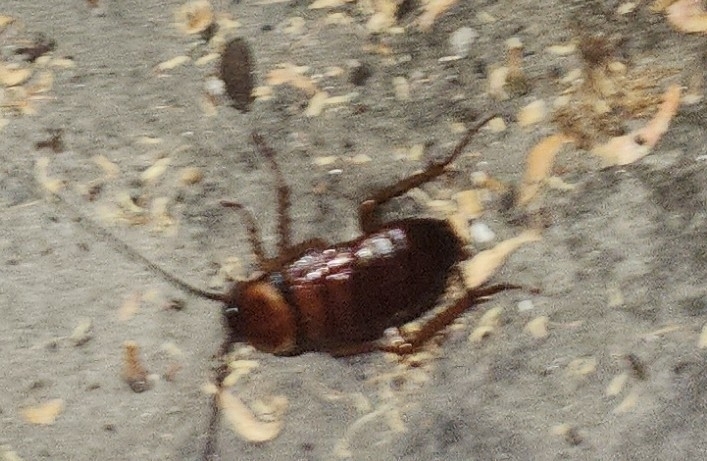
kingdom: Animalia
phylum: Arthropoda
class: Insecta
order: Blattodea
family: Blattidae
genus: Periplaneta
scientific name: Periplaneta americana
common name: American cockroach
